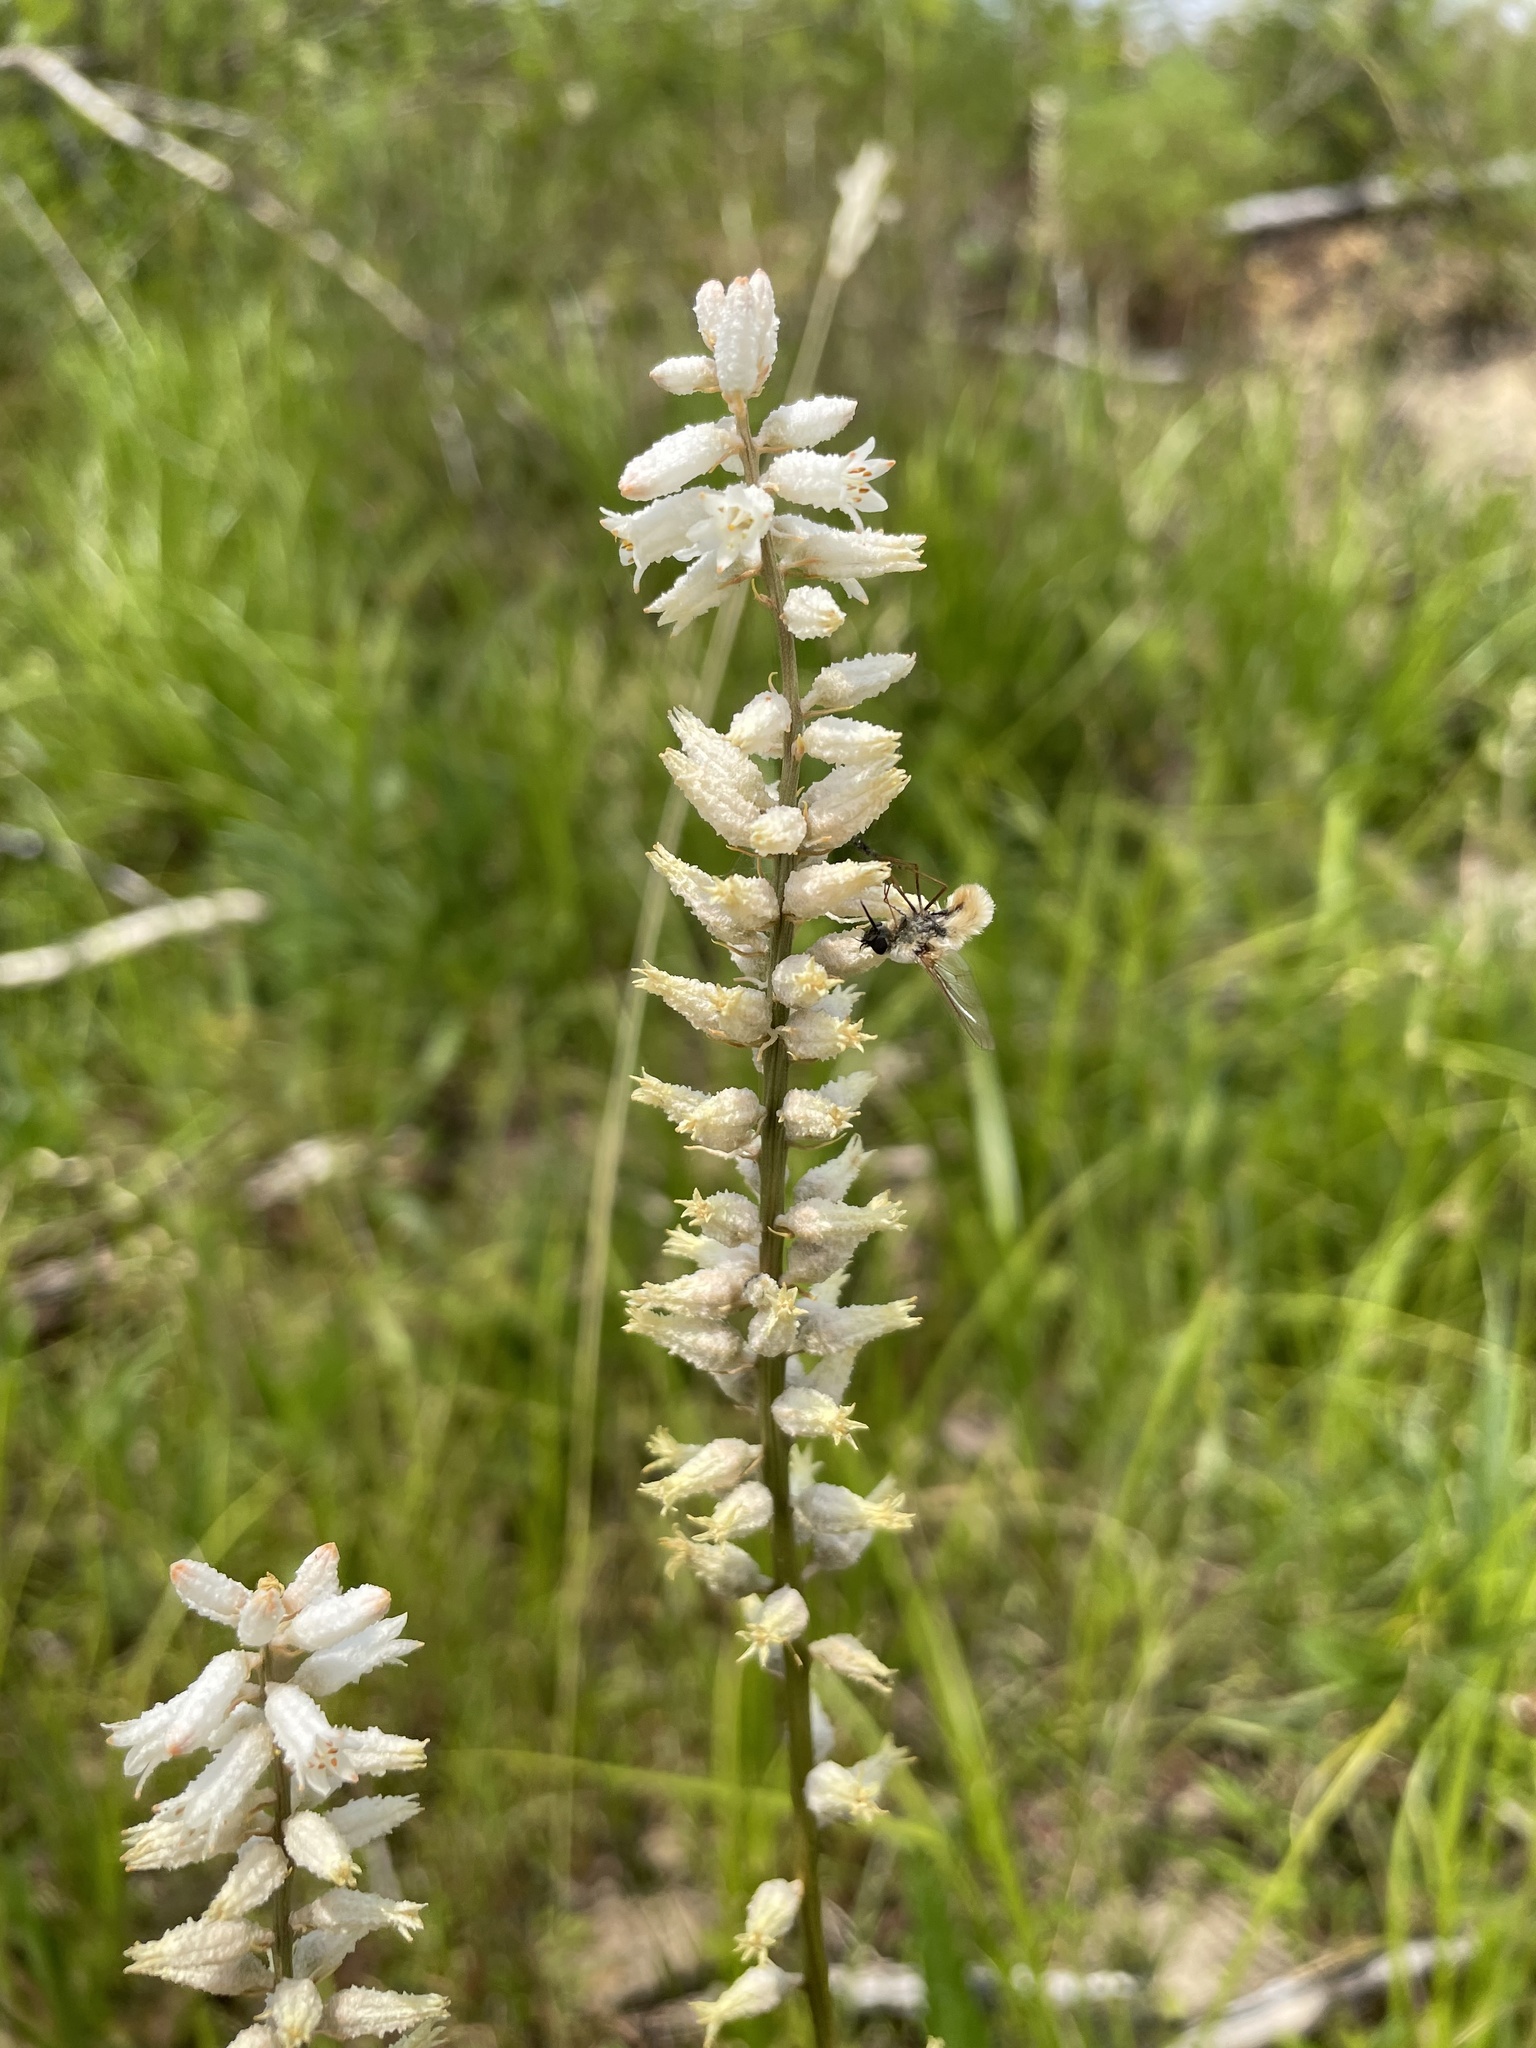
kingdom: Plantae
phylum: Tracheophyta
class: Liliopsida
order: Dioscoreales
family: Nartheciaceae
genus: Aletris
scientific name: Aletris farinosa
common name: Colicroot
